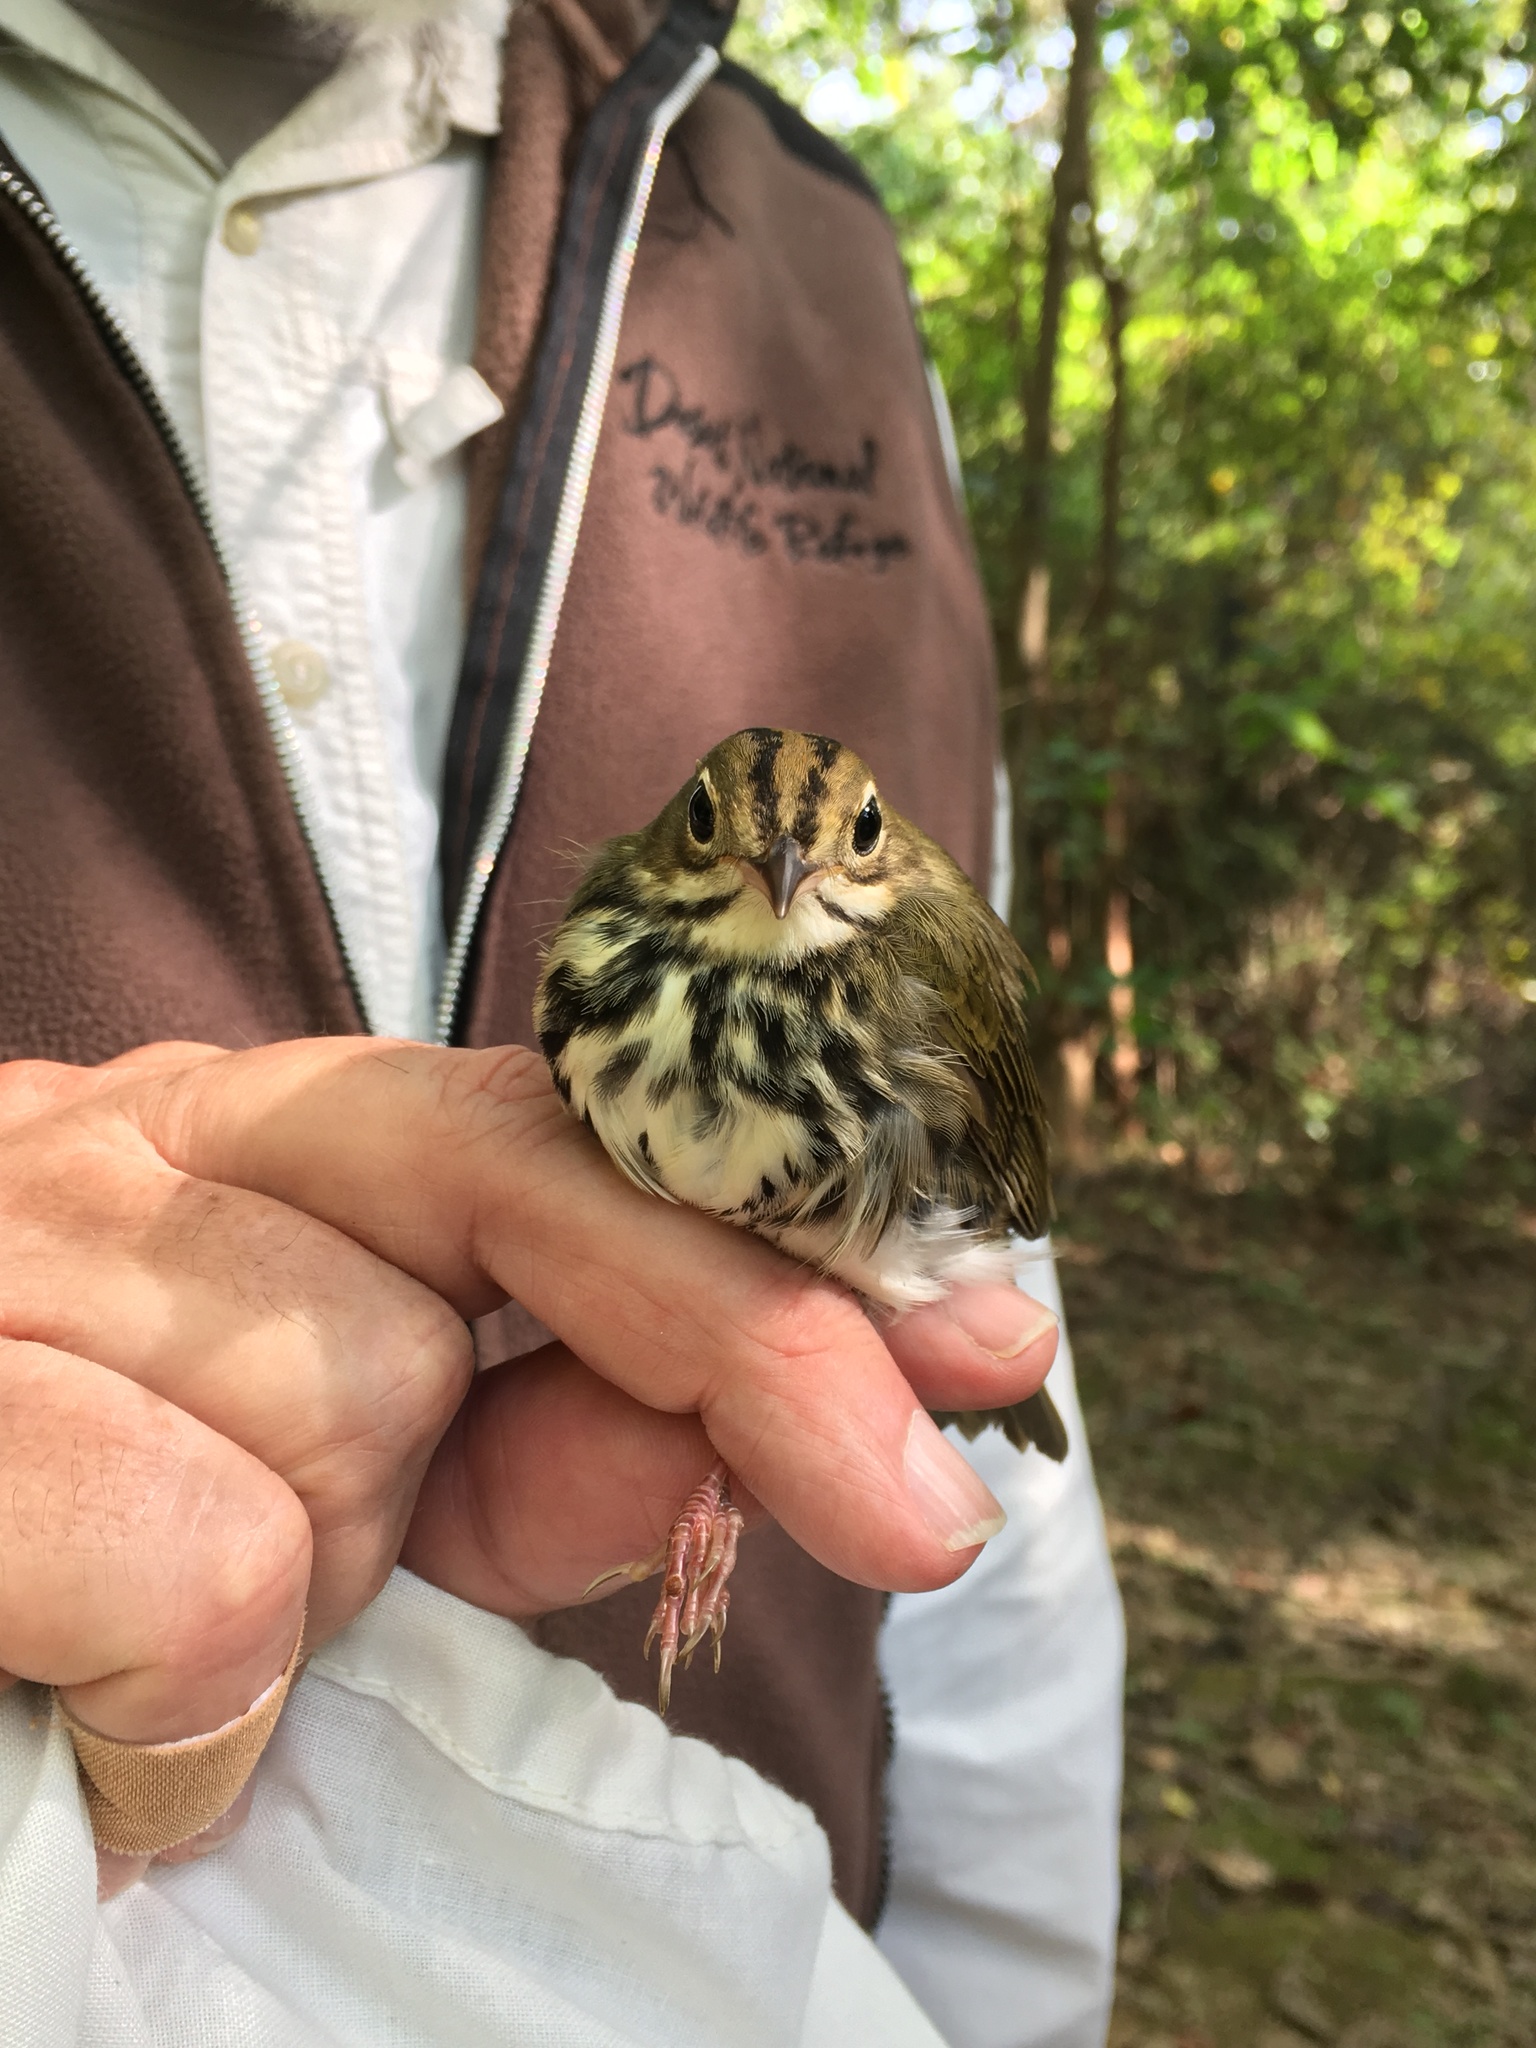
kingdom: Animalia
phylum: Chordata
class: Aves
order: Passeriformes
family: Parulidae
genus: Seiurus
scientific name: Seiurus aurocapilla
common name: Ovenbird
